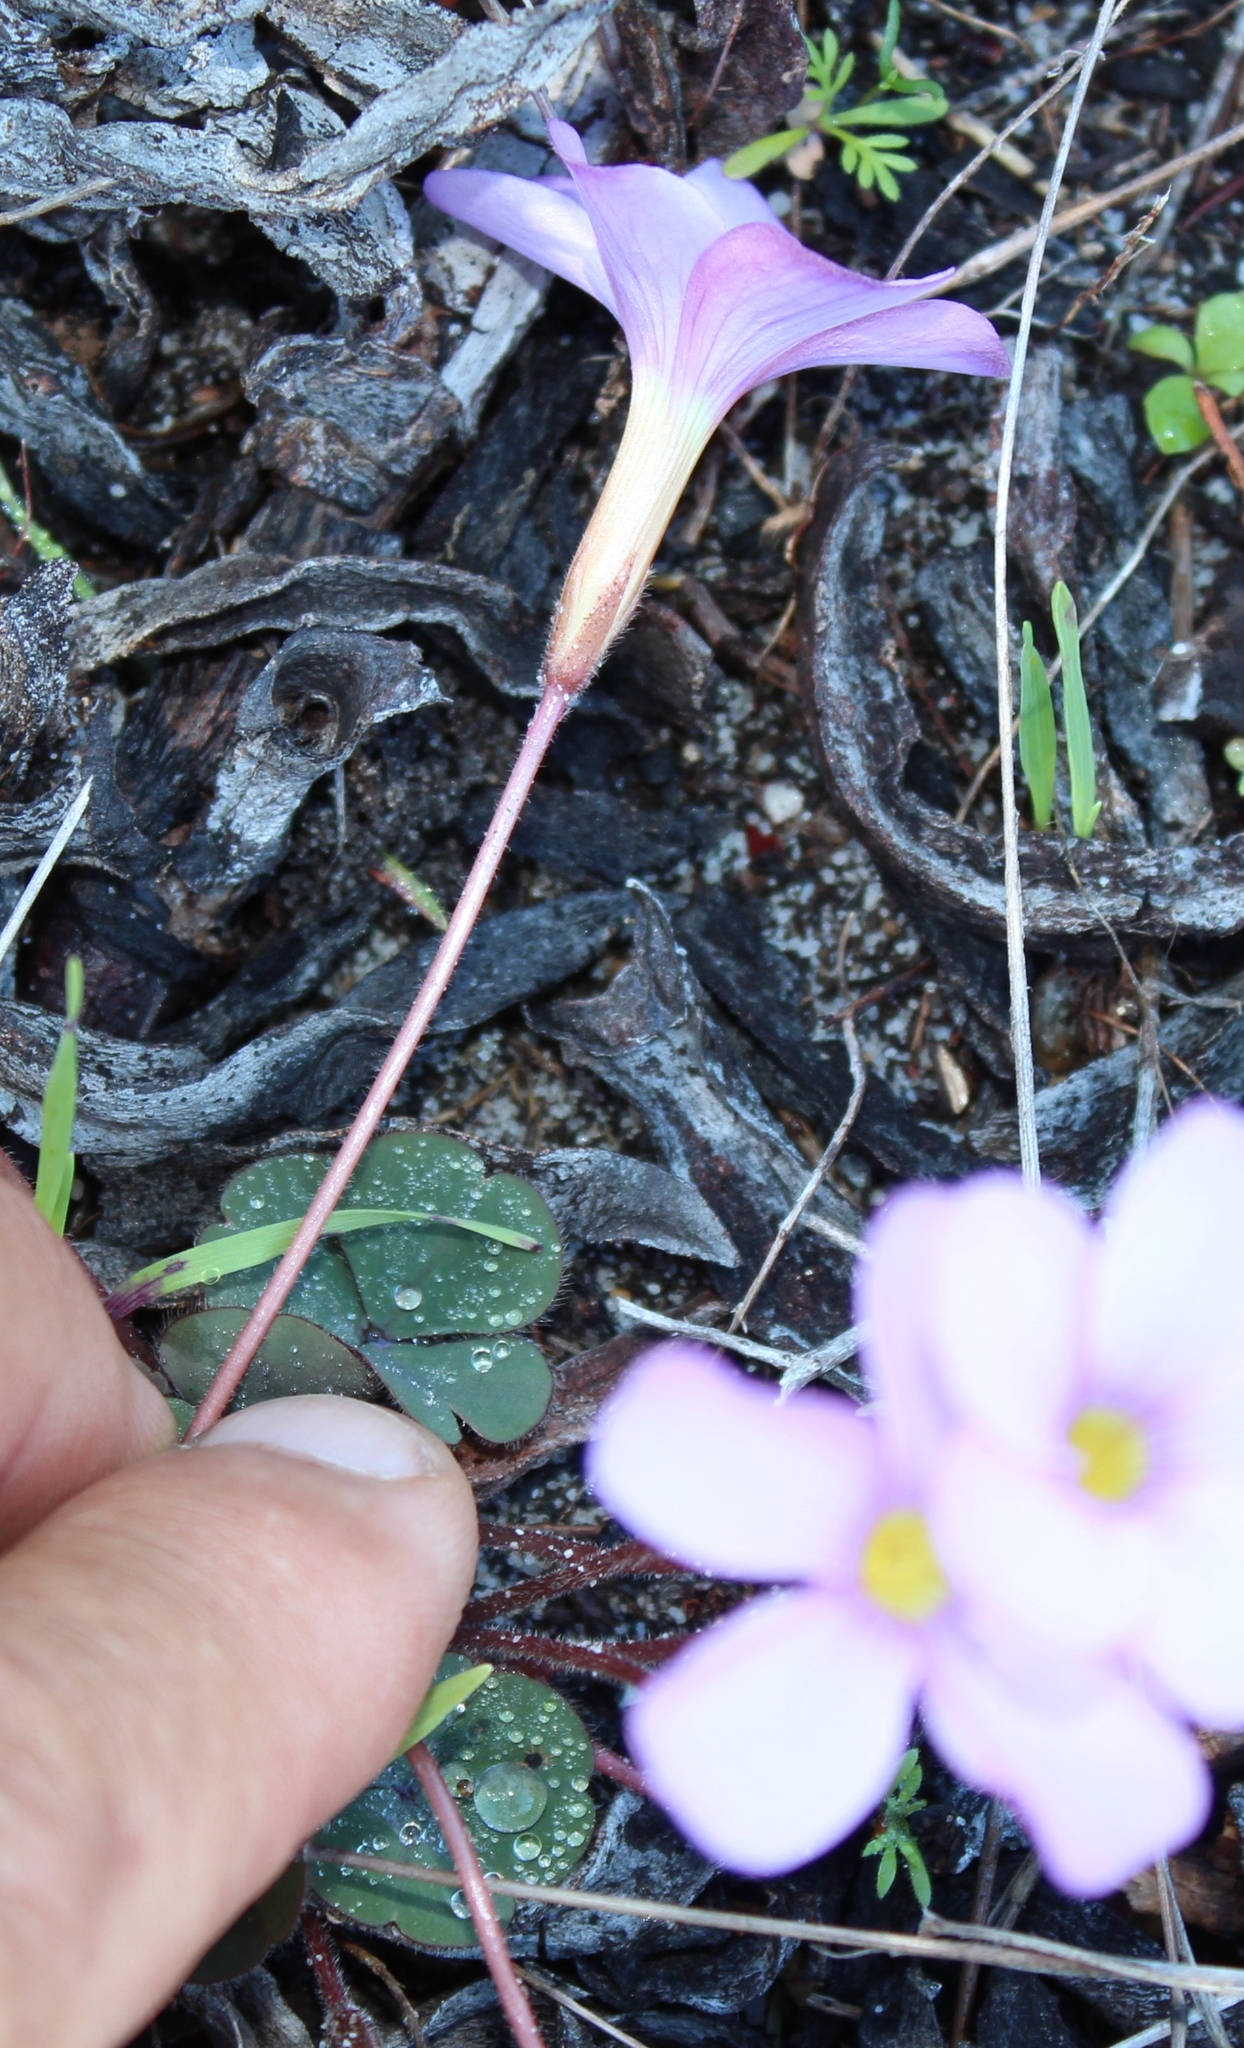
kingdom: Plantae
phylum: Tracheophyta
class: Magnoliopsida
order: Oxalidales
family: Oxalidaceae
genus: Oxalis
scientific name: Oxalis eckloniana
